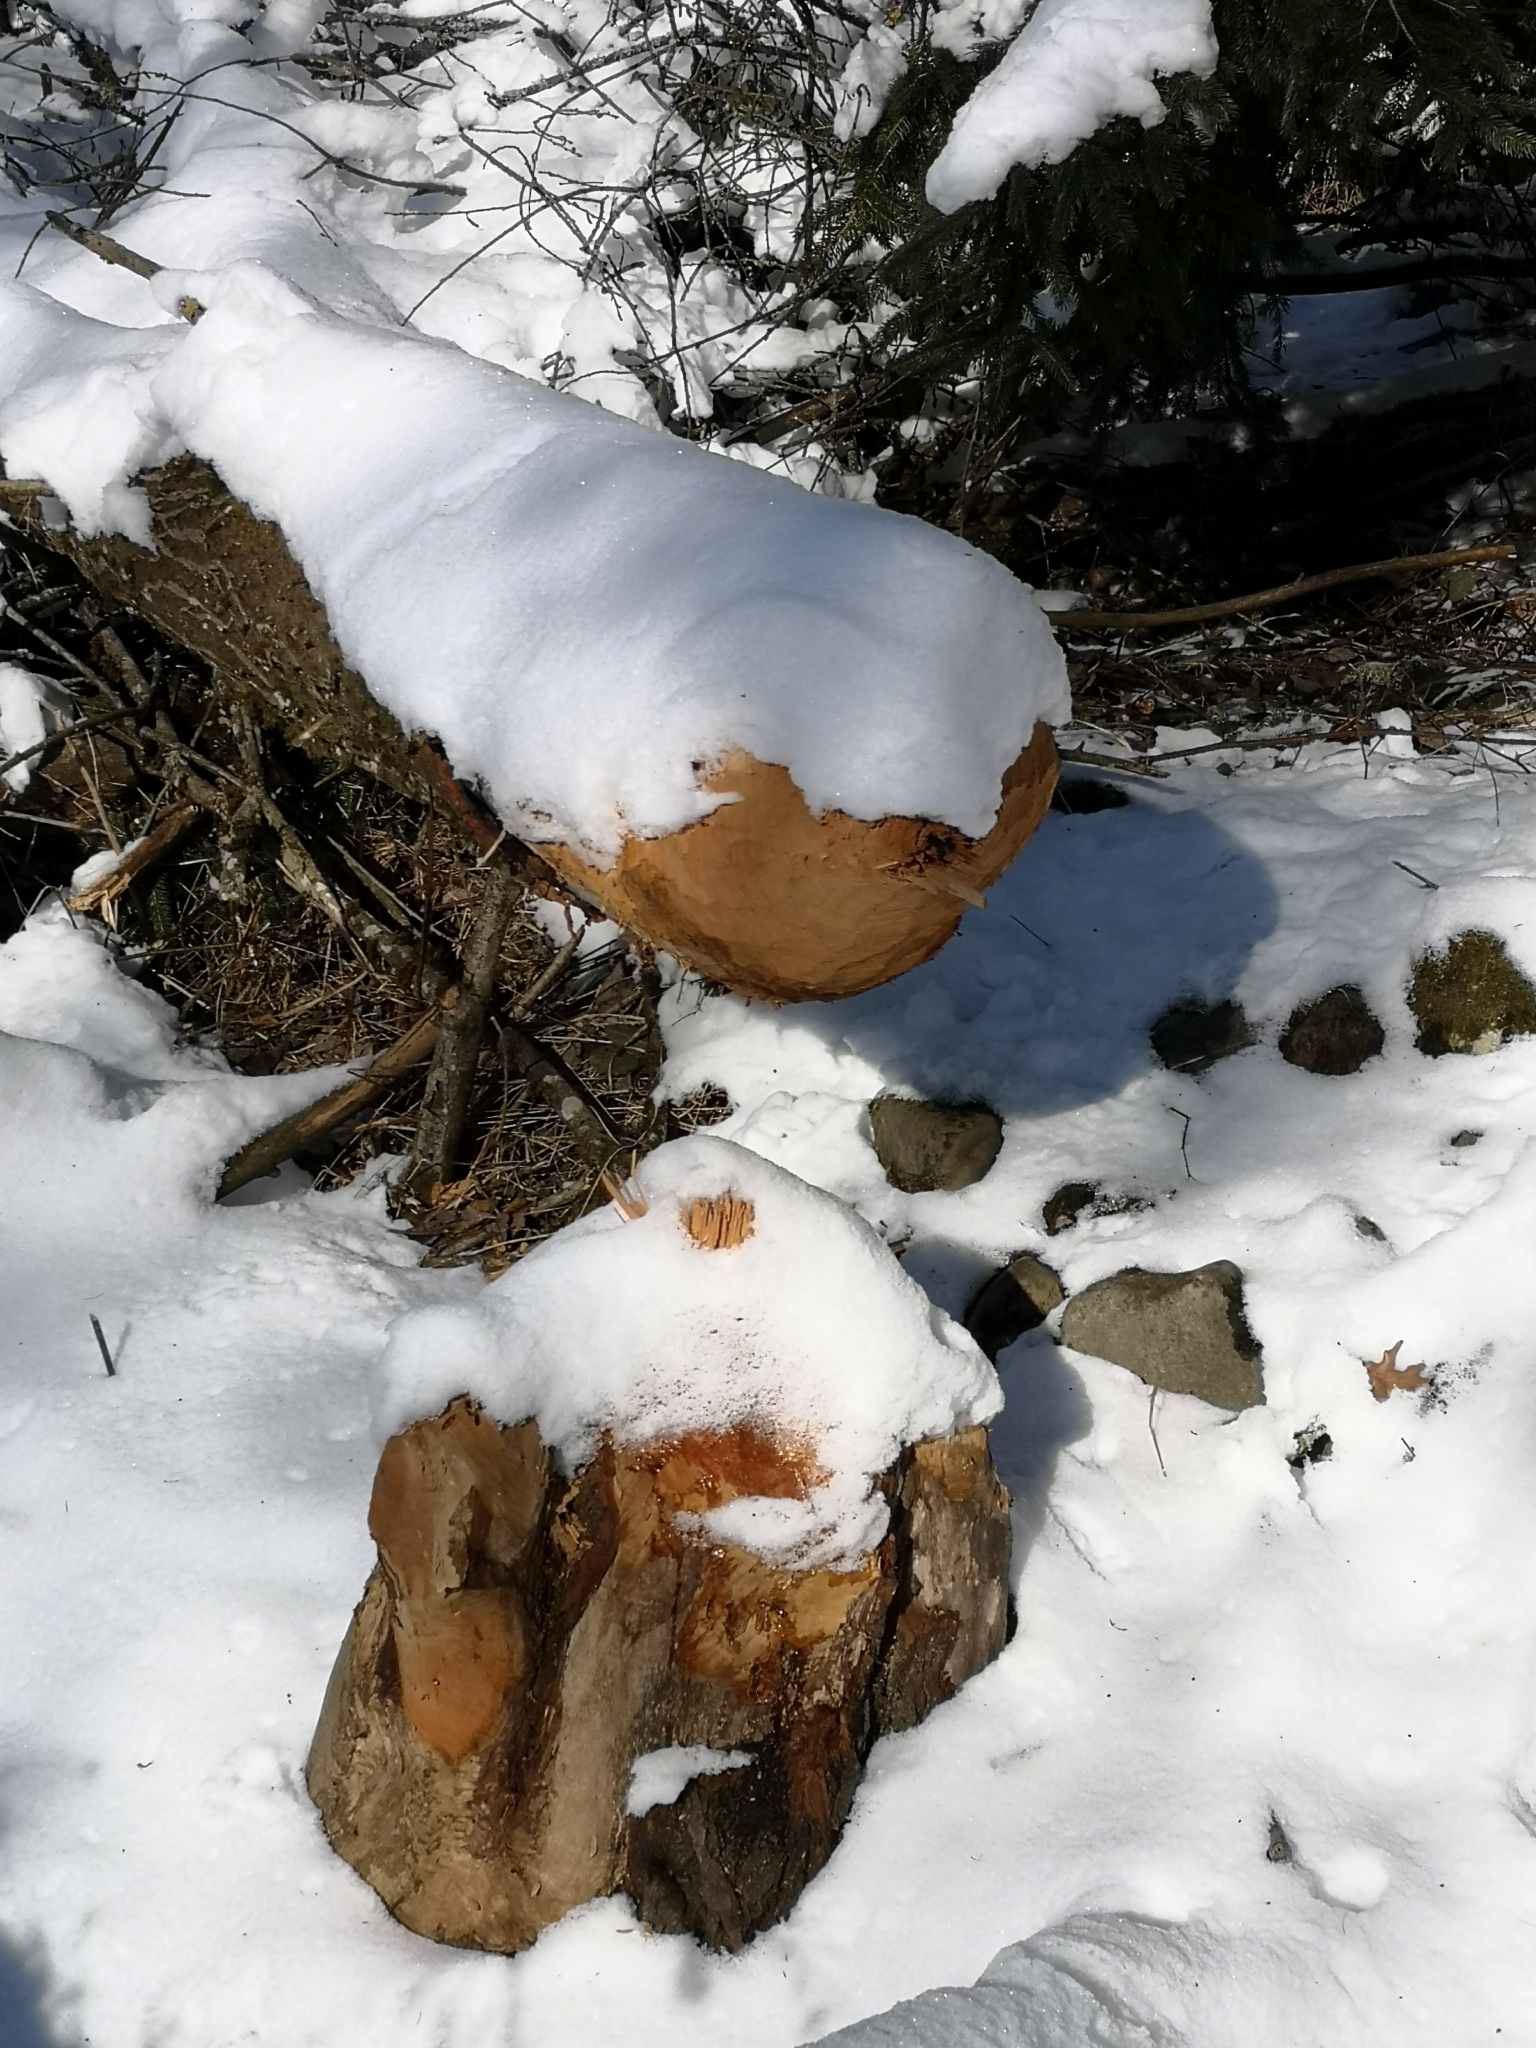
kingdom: Animalia
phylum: Chordata
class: Mammalia
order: Rodentia
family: Castoridae
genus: Castor
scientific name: Castor fiber
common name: Eurasian beaver
